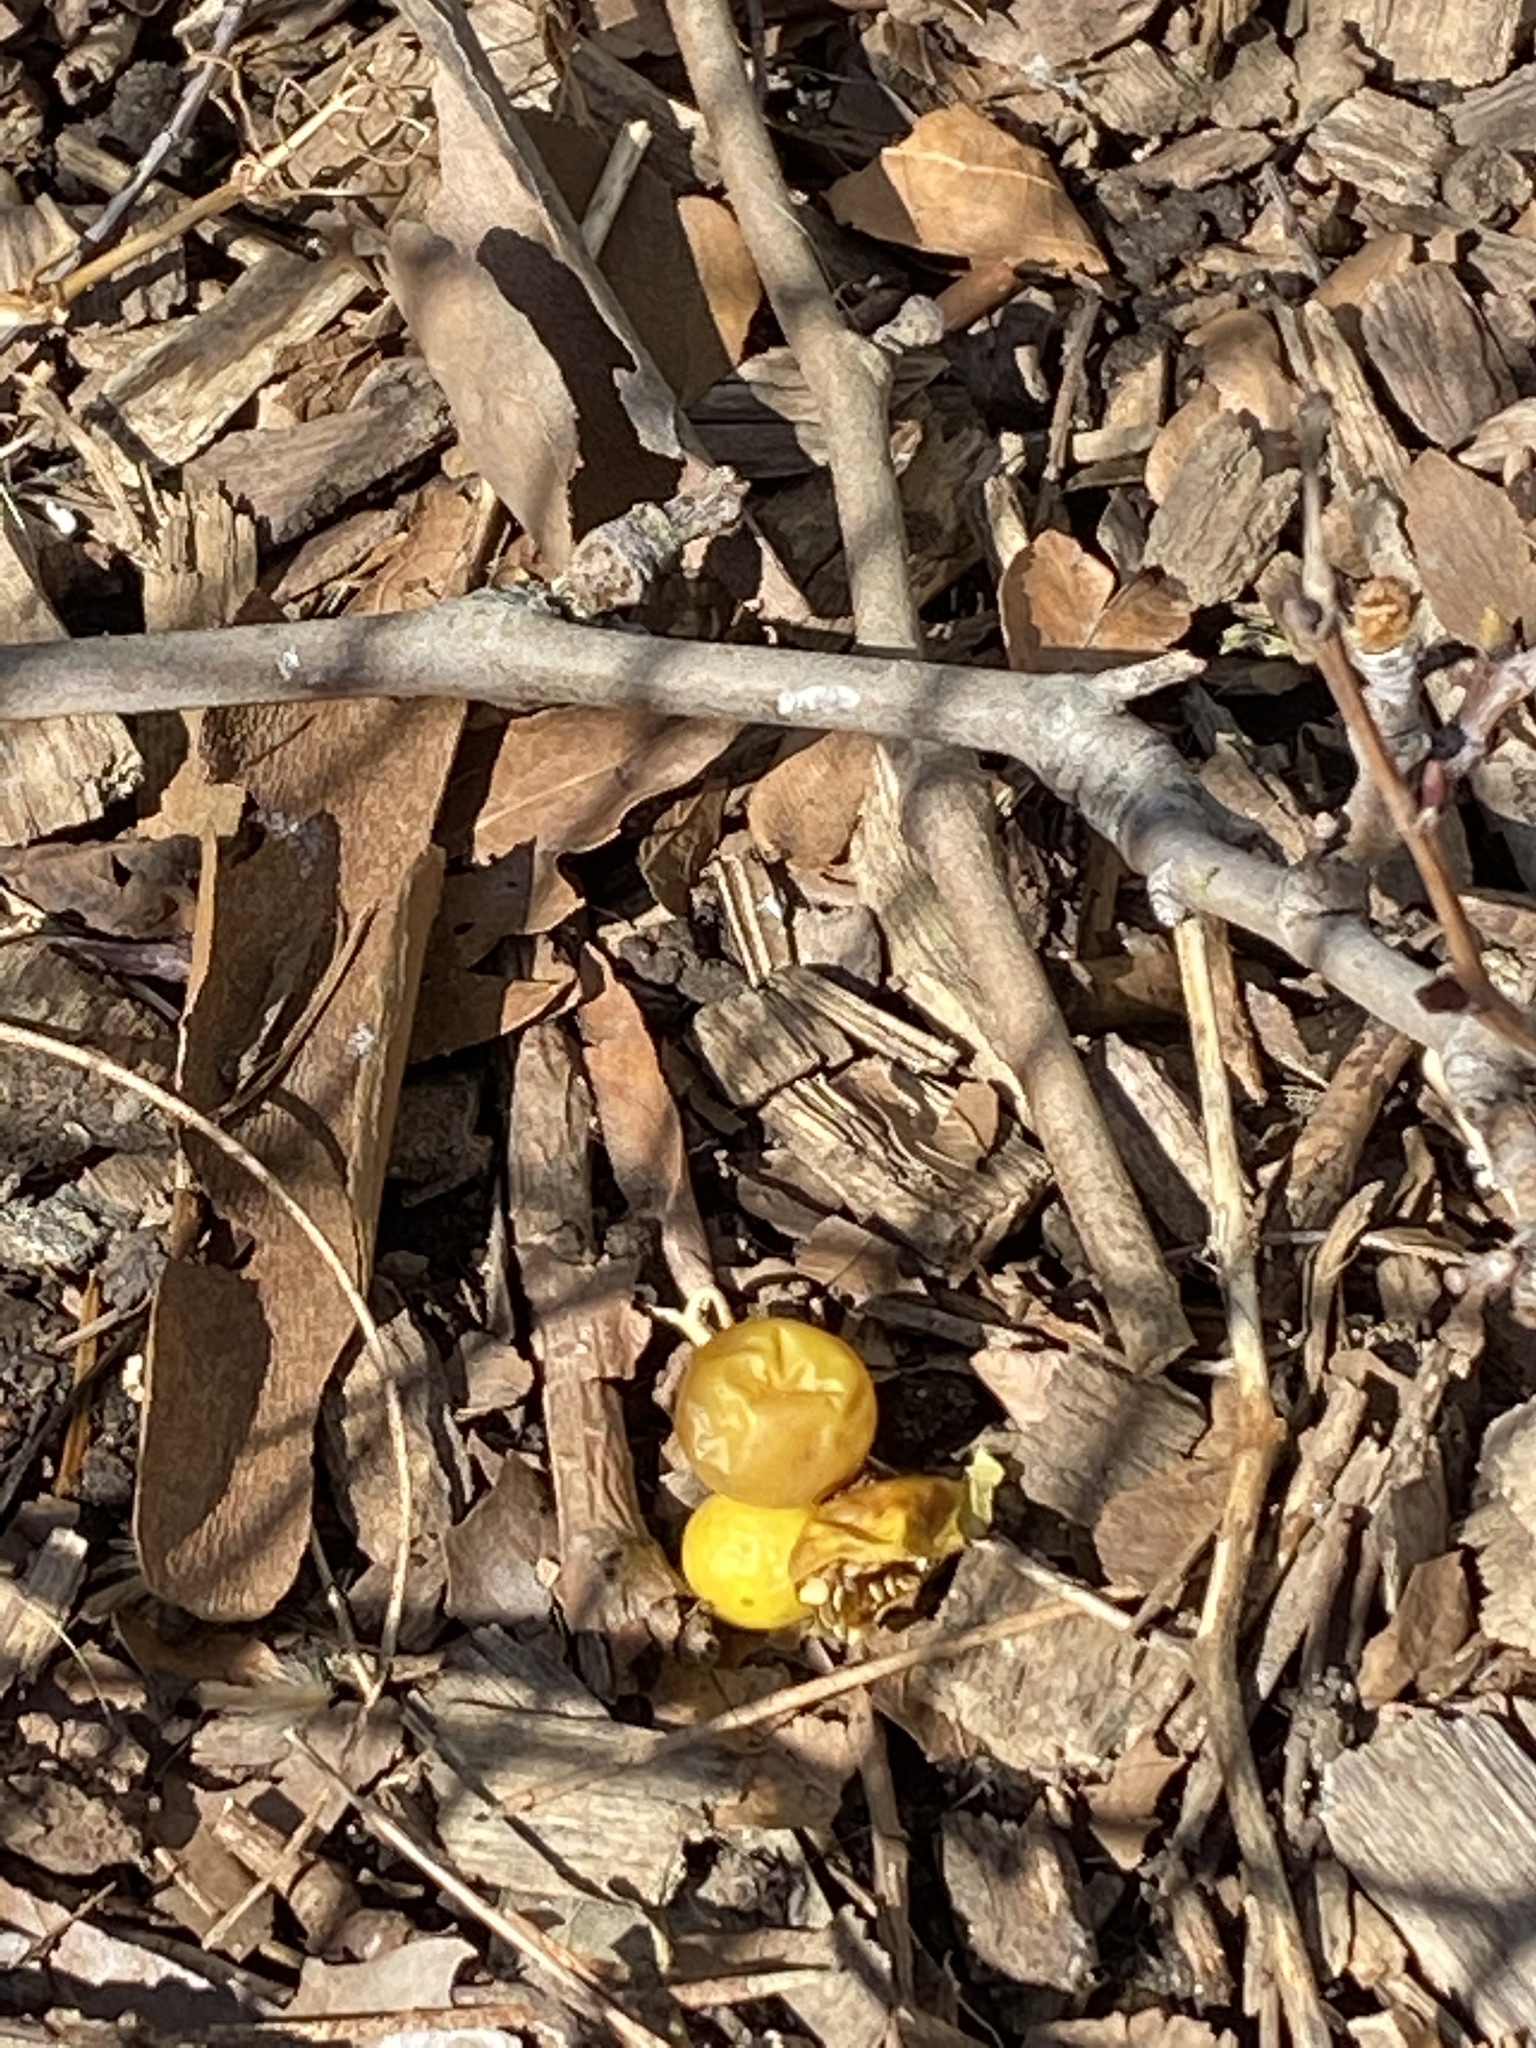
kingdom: Plantae
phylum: Tracheophyta
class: Magnoliopsida
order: Solanales
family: Solanaceae
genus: Solanum
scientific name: Solanum carolinense
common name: Horse-nettle
